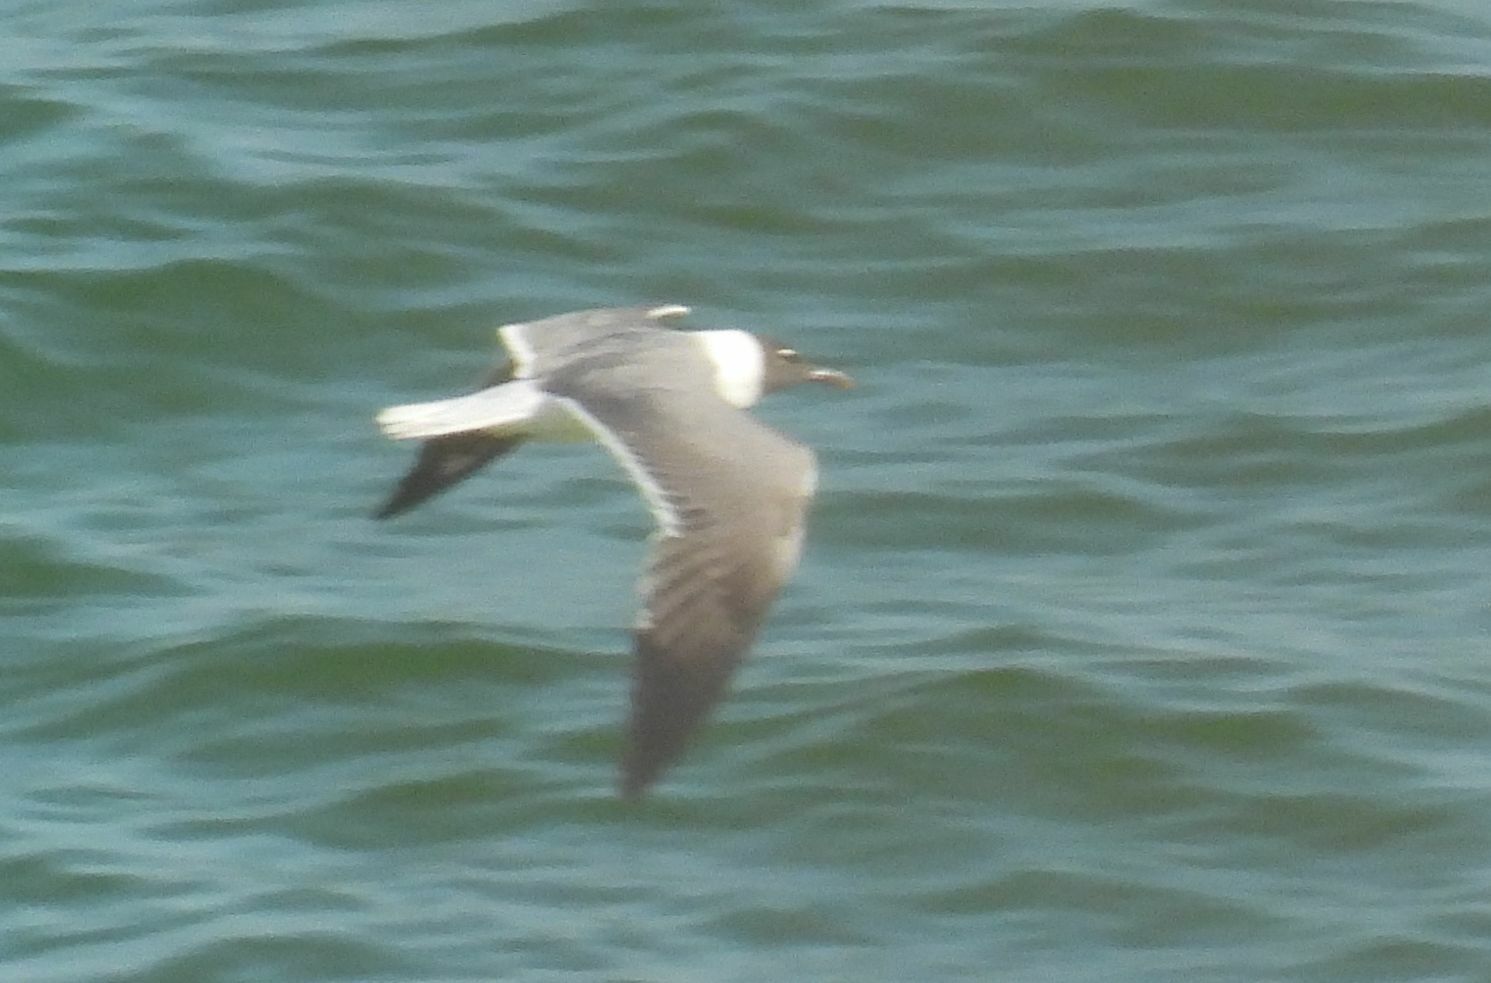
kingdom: Animalia
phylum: Chordata
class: Aves
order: Charadriiformes
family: Laridae
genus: Leucophaeus
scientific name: Leucophaeus atricilla
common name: Laughing gull
